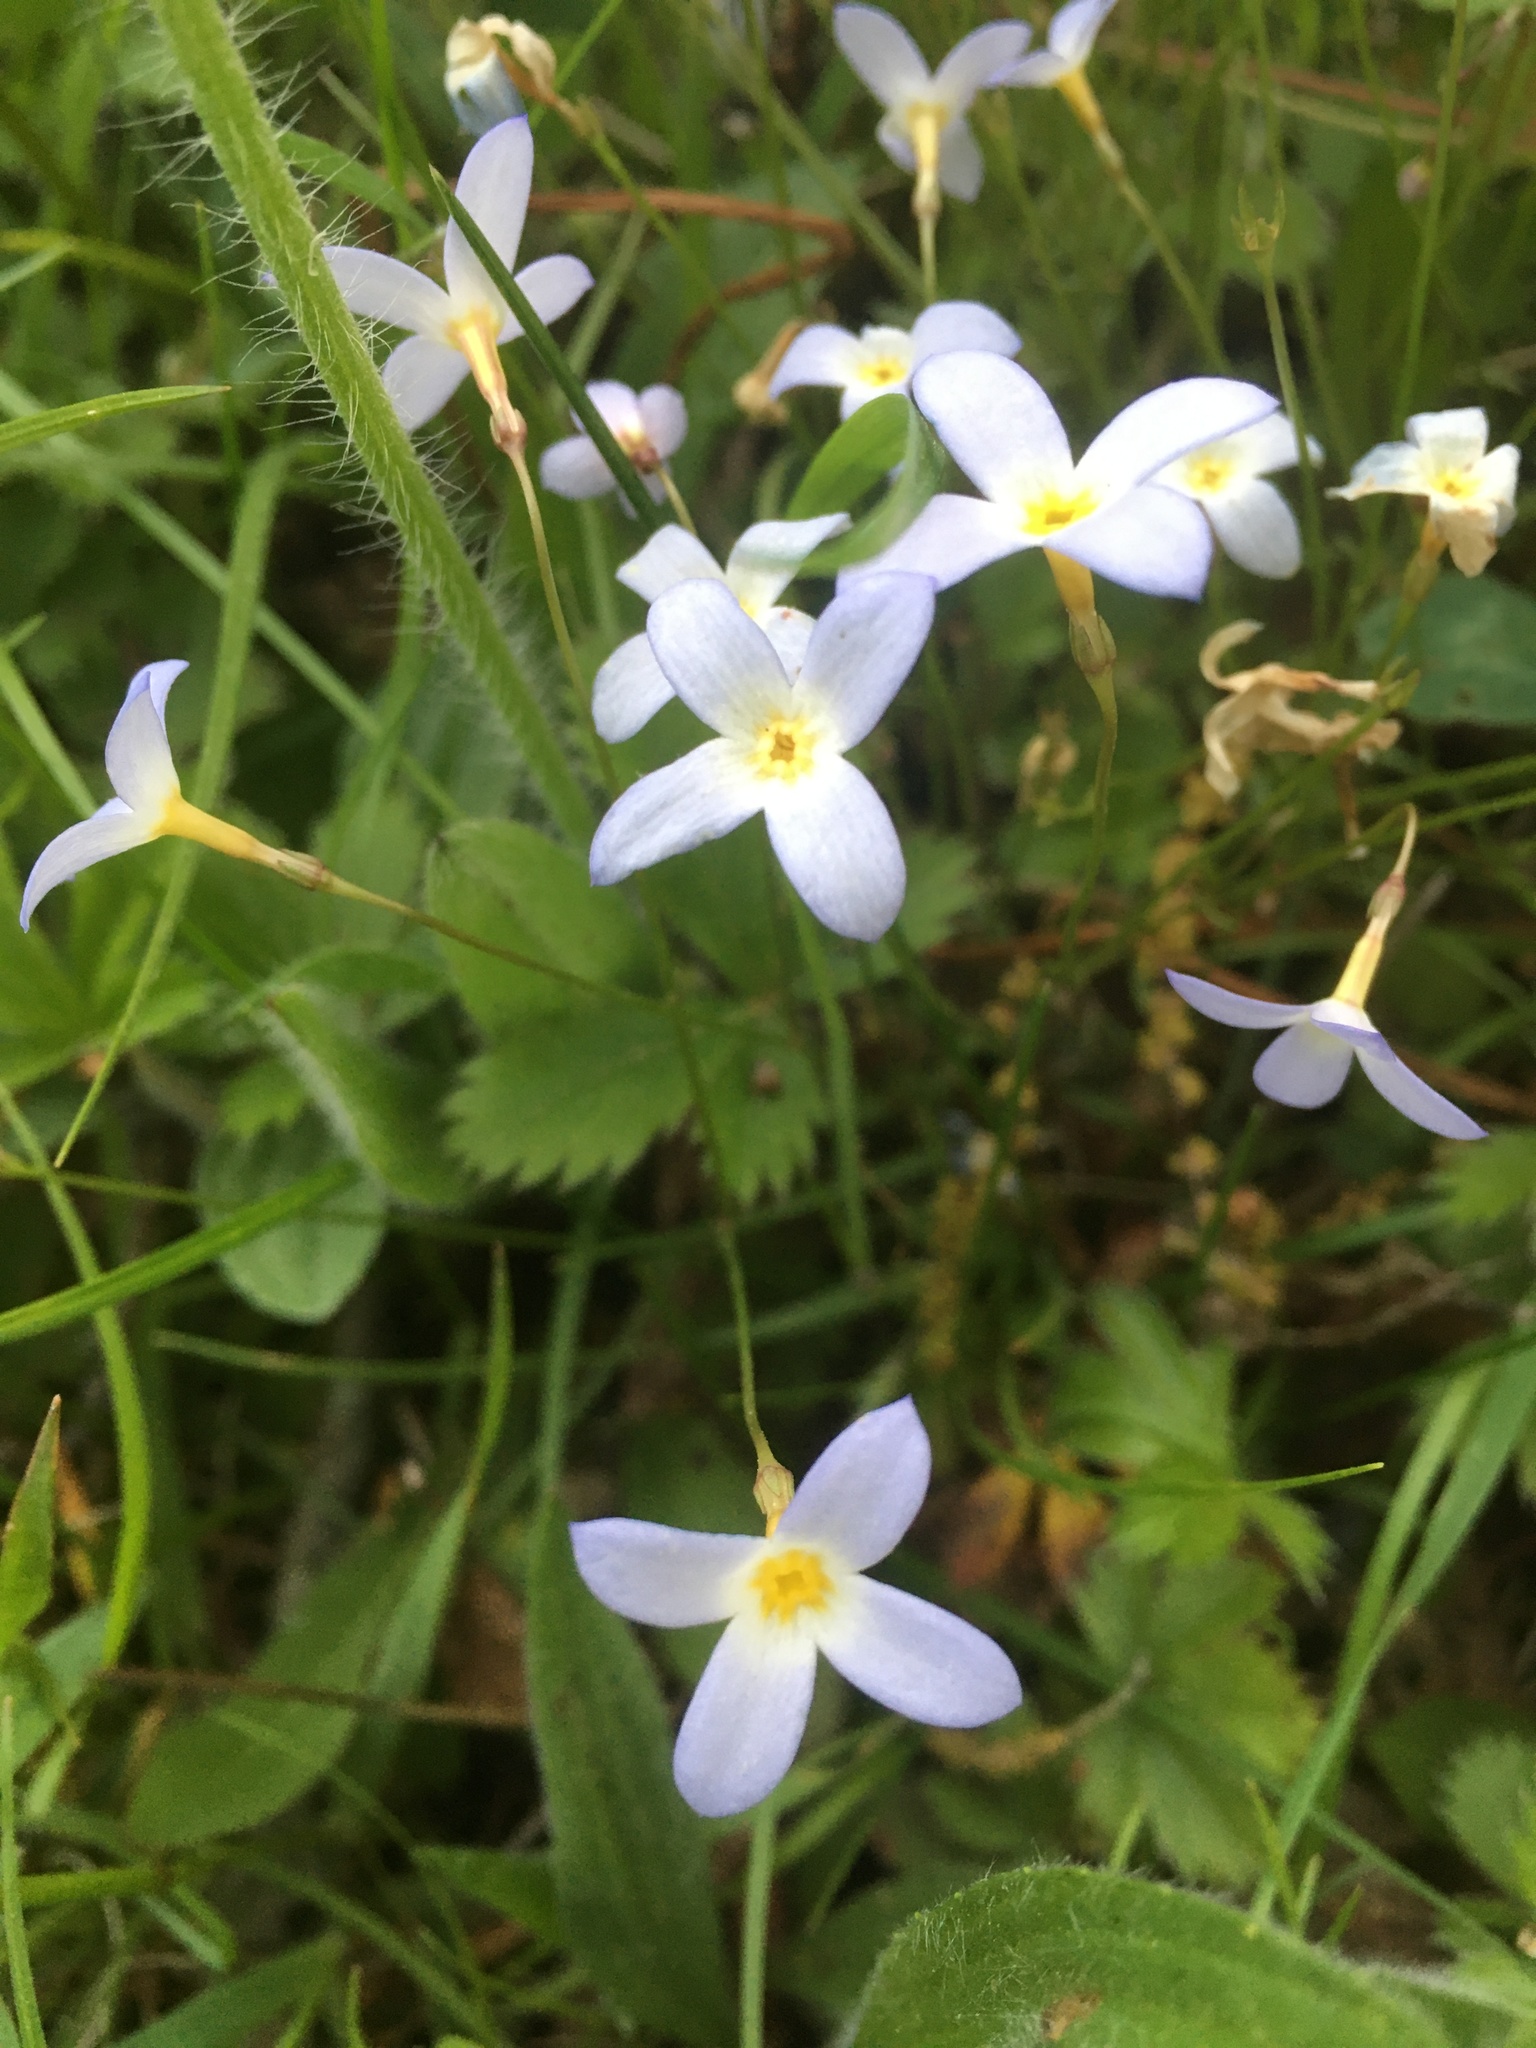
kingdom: Plantae
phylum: Tracheophyta
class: Magnoliopsida
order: Gentianales
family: Rubiaceae
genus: Houstonia
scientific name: Houstonia caerulea
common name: Bluets
